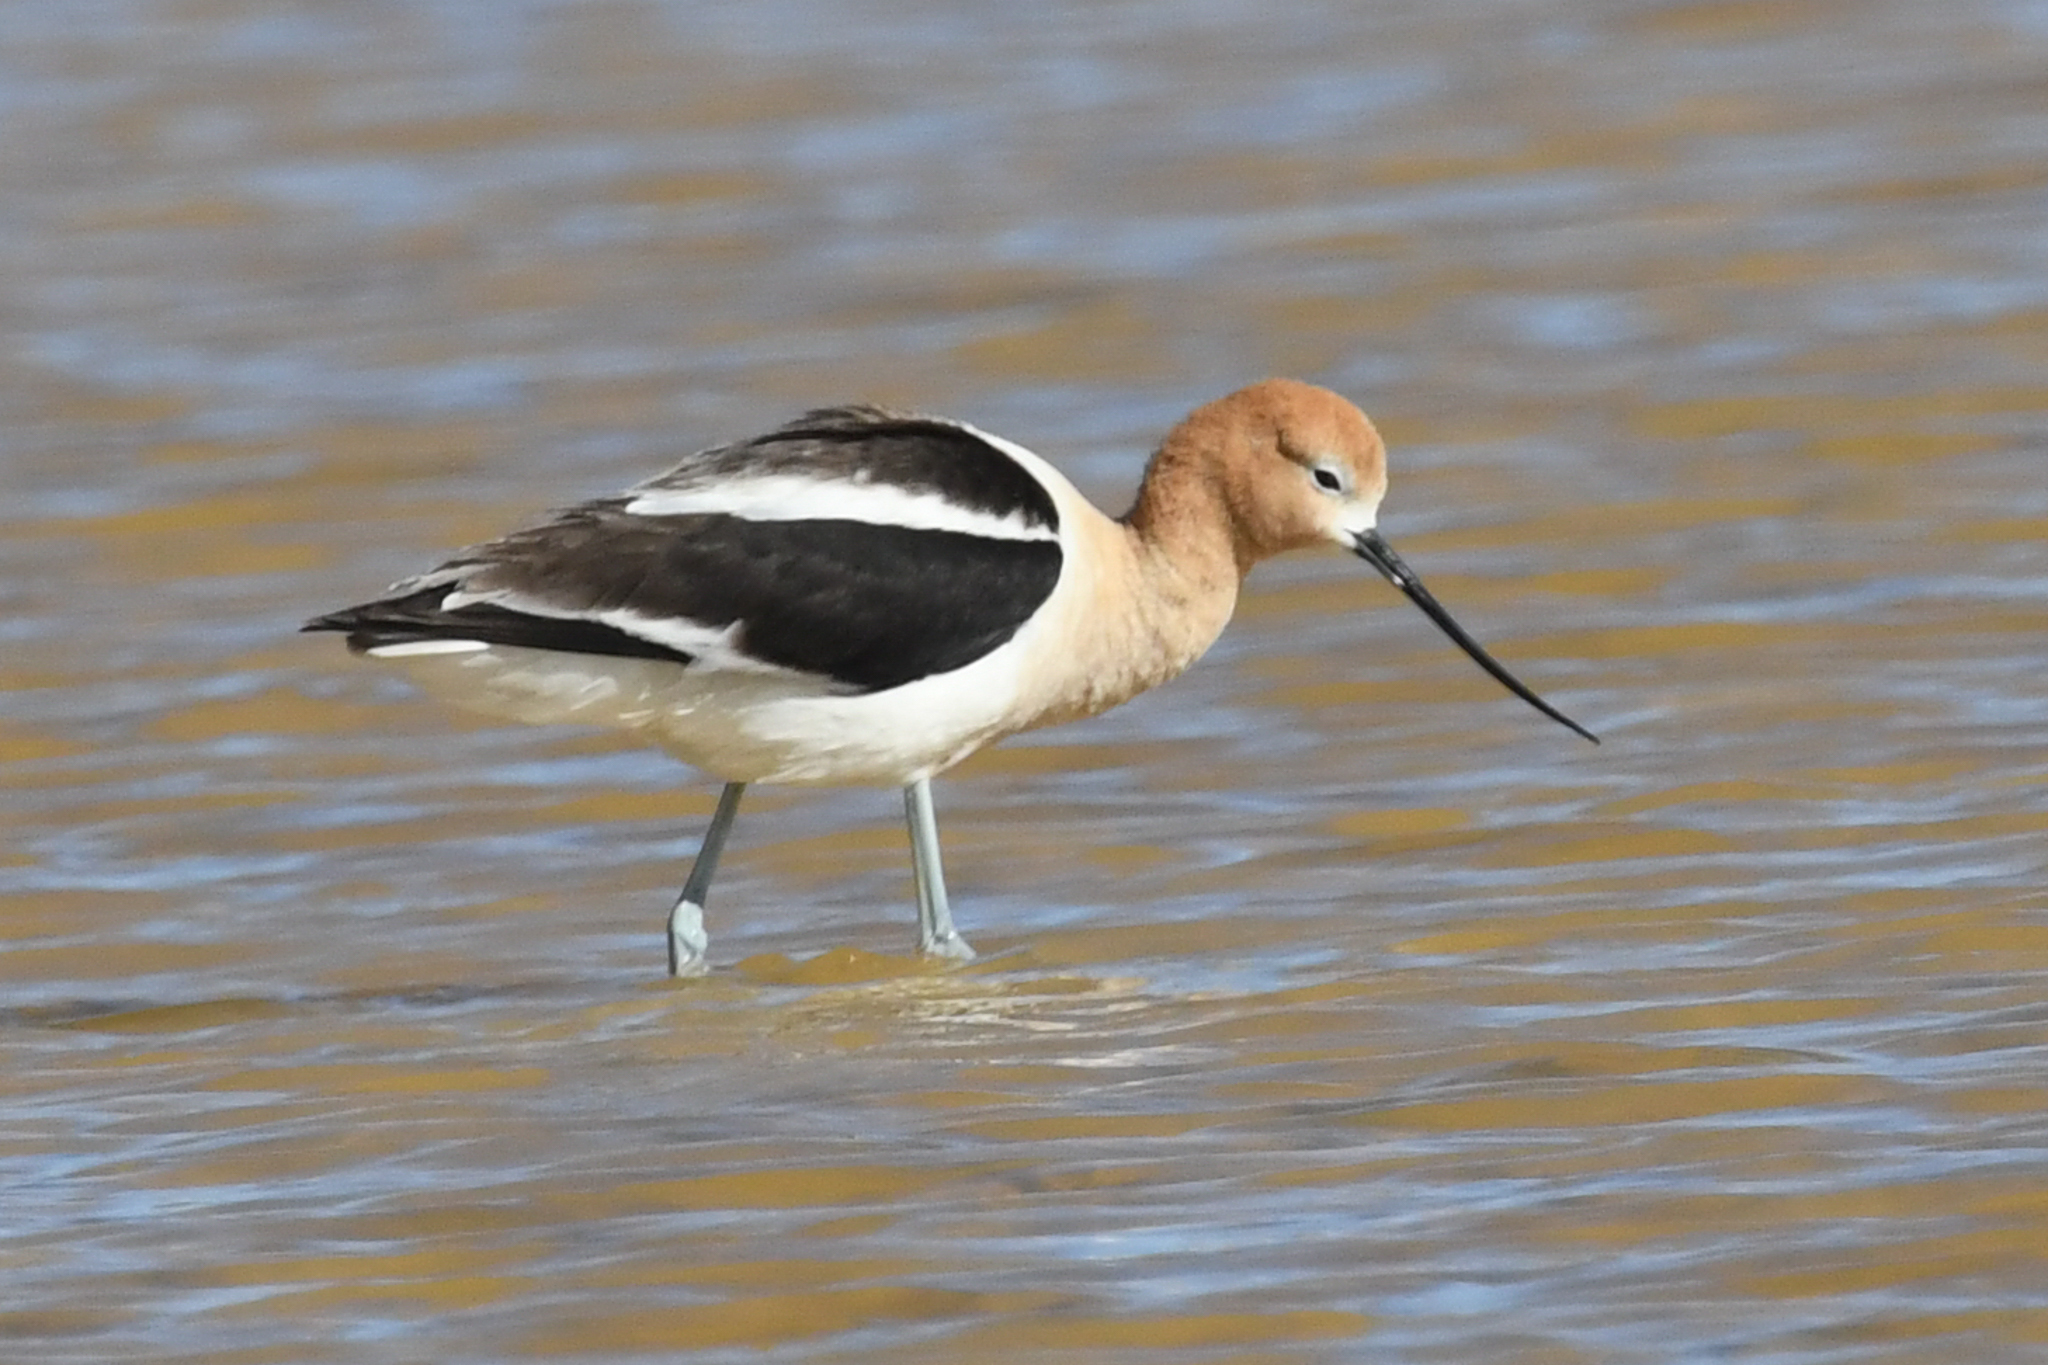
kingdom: Animalia
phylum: Chordata
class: Aves
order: Charadriiformes
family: Recurvirostridae
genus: Recurvirostra
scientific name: Recurvirostra americana
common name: American avocet
